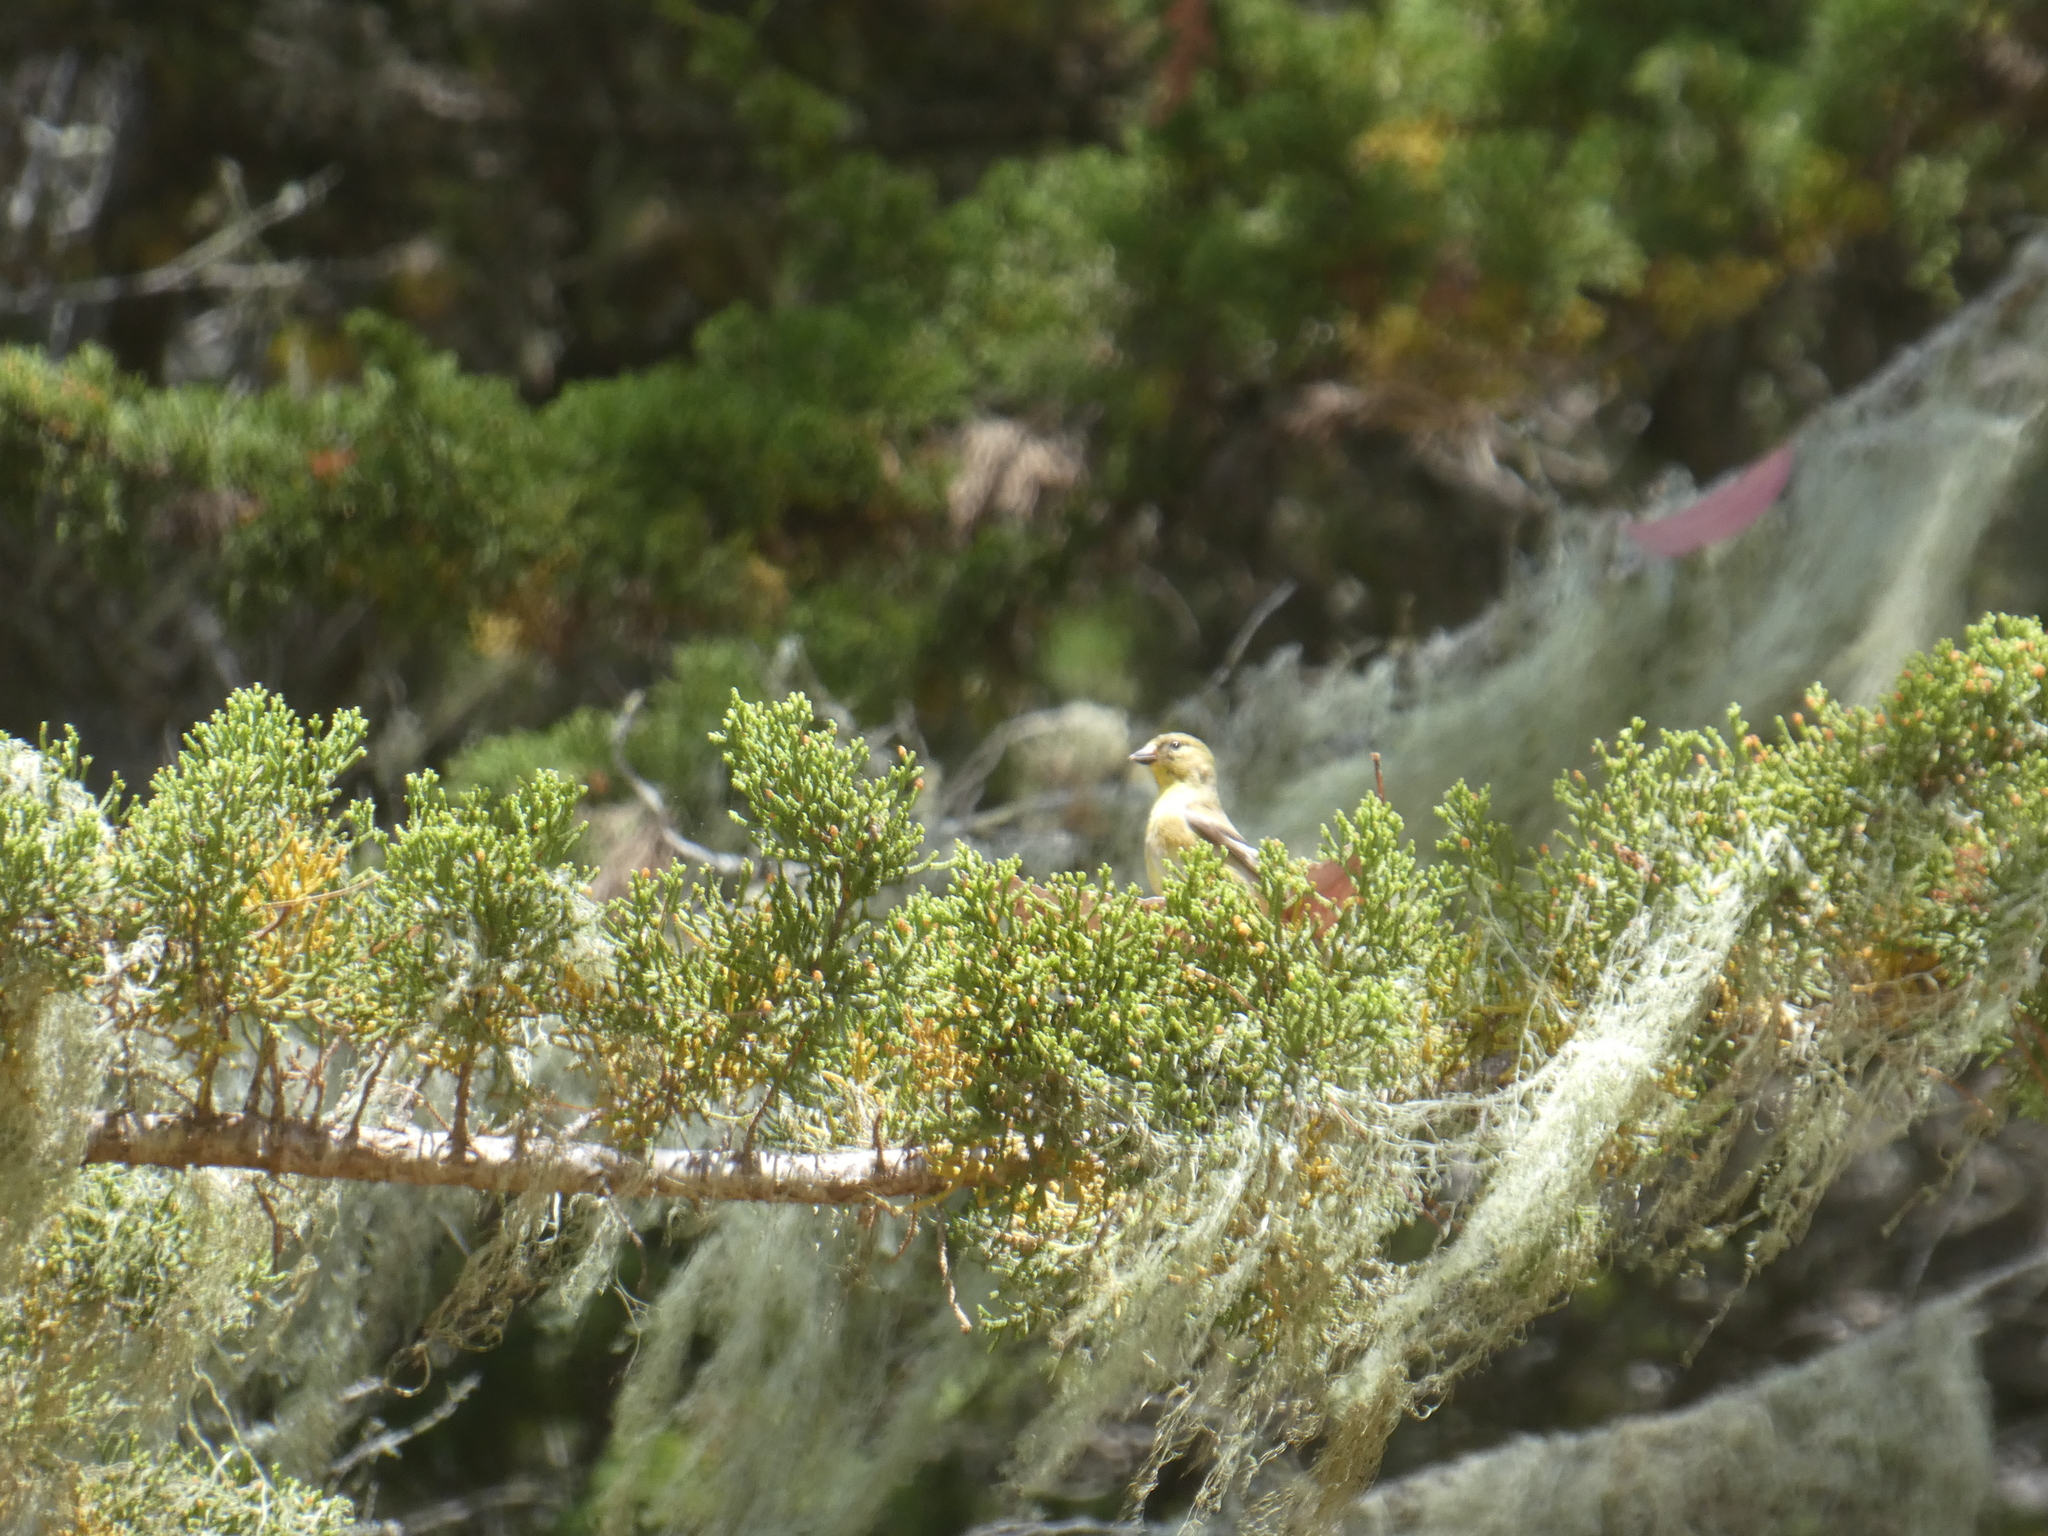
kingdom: Animalia
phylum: Chordata
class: Aves
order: Passeriformes
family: Fringillidae
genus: Spinus
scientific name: Spinus tristis
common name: American goldfinch
